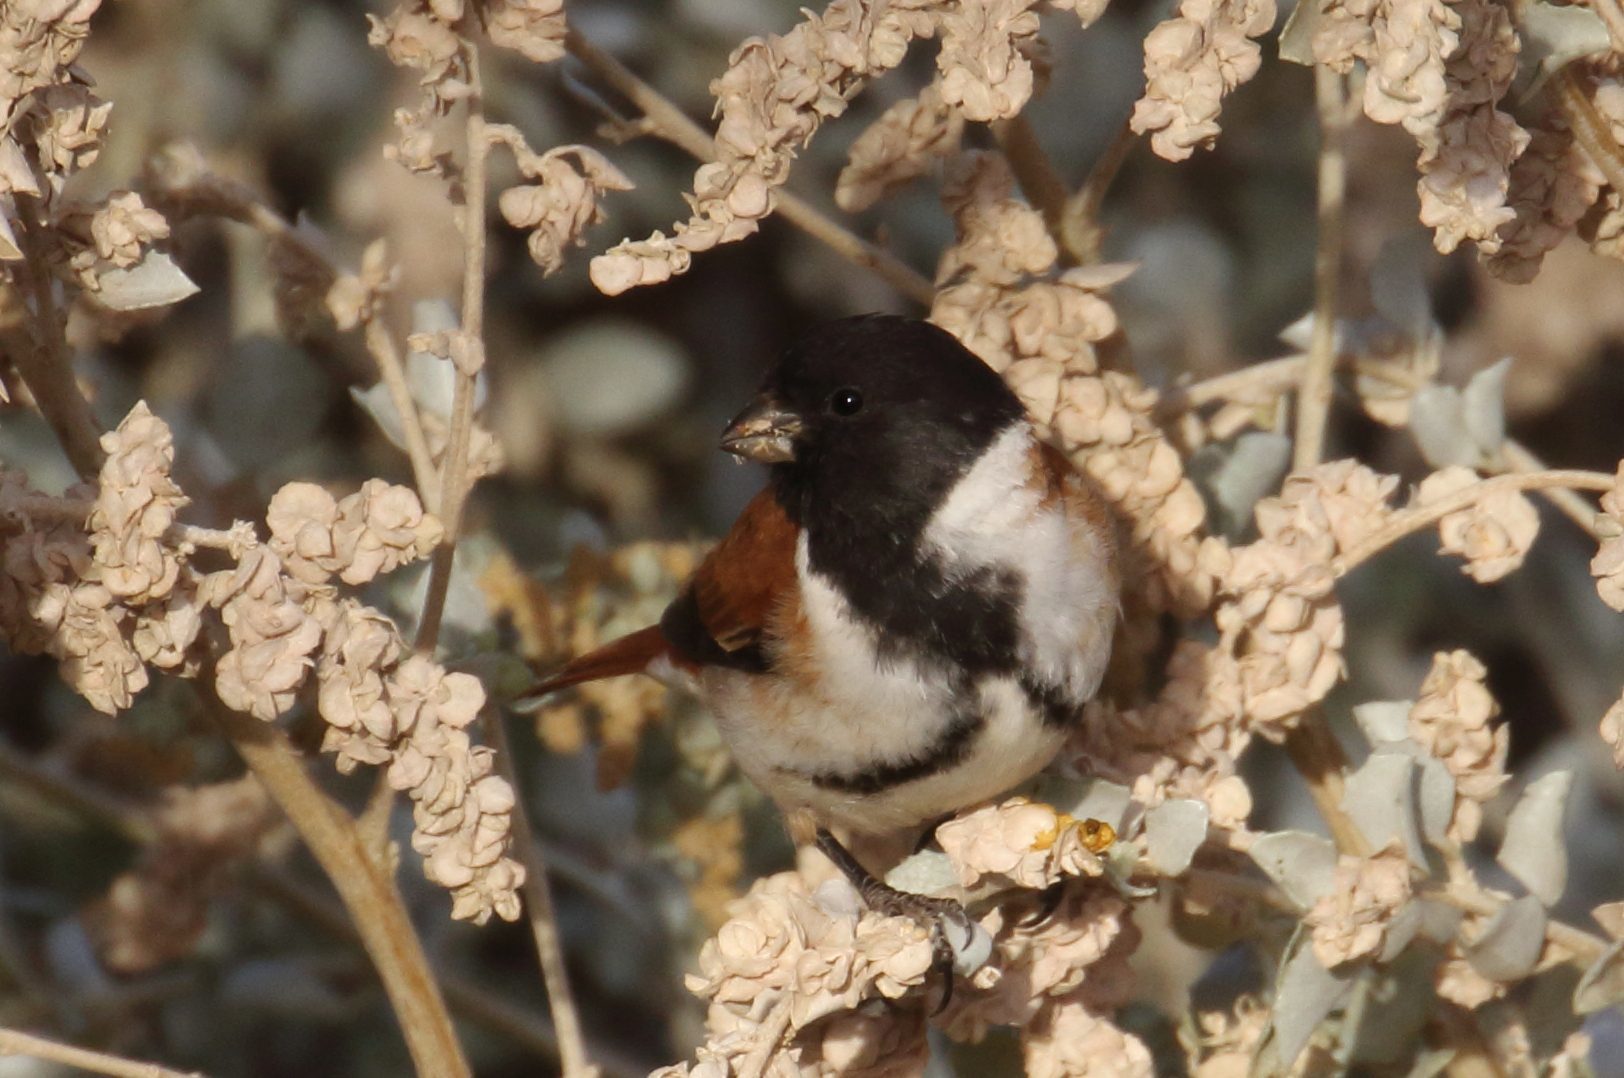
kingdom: Animalia
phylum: Chordata
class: Aves
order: Passeriformes
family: Fringillidae
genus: Serinus
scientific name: Serinus alario
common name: Black-headed canary
